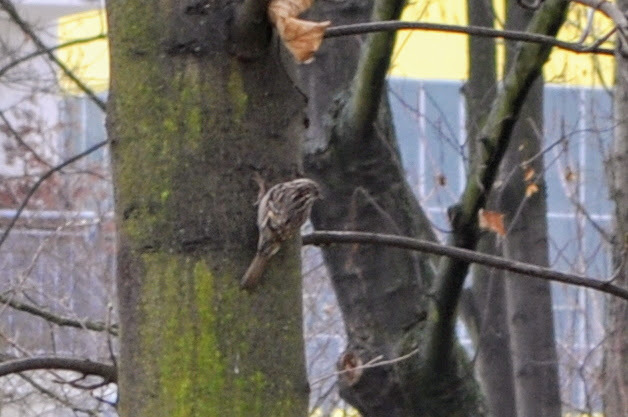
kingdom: Animalia
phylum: Chordata
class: Aves
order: Passeriformes
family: Certhiidae
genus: Certhia
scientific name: Certhia brachydactyla
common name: Short-toed treecreeper
